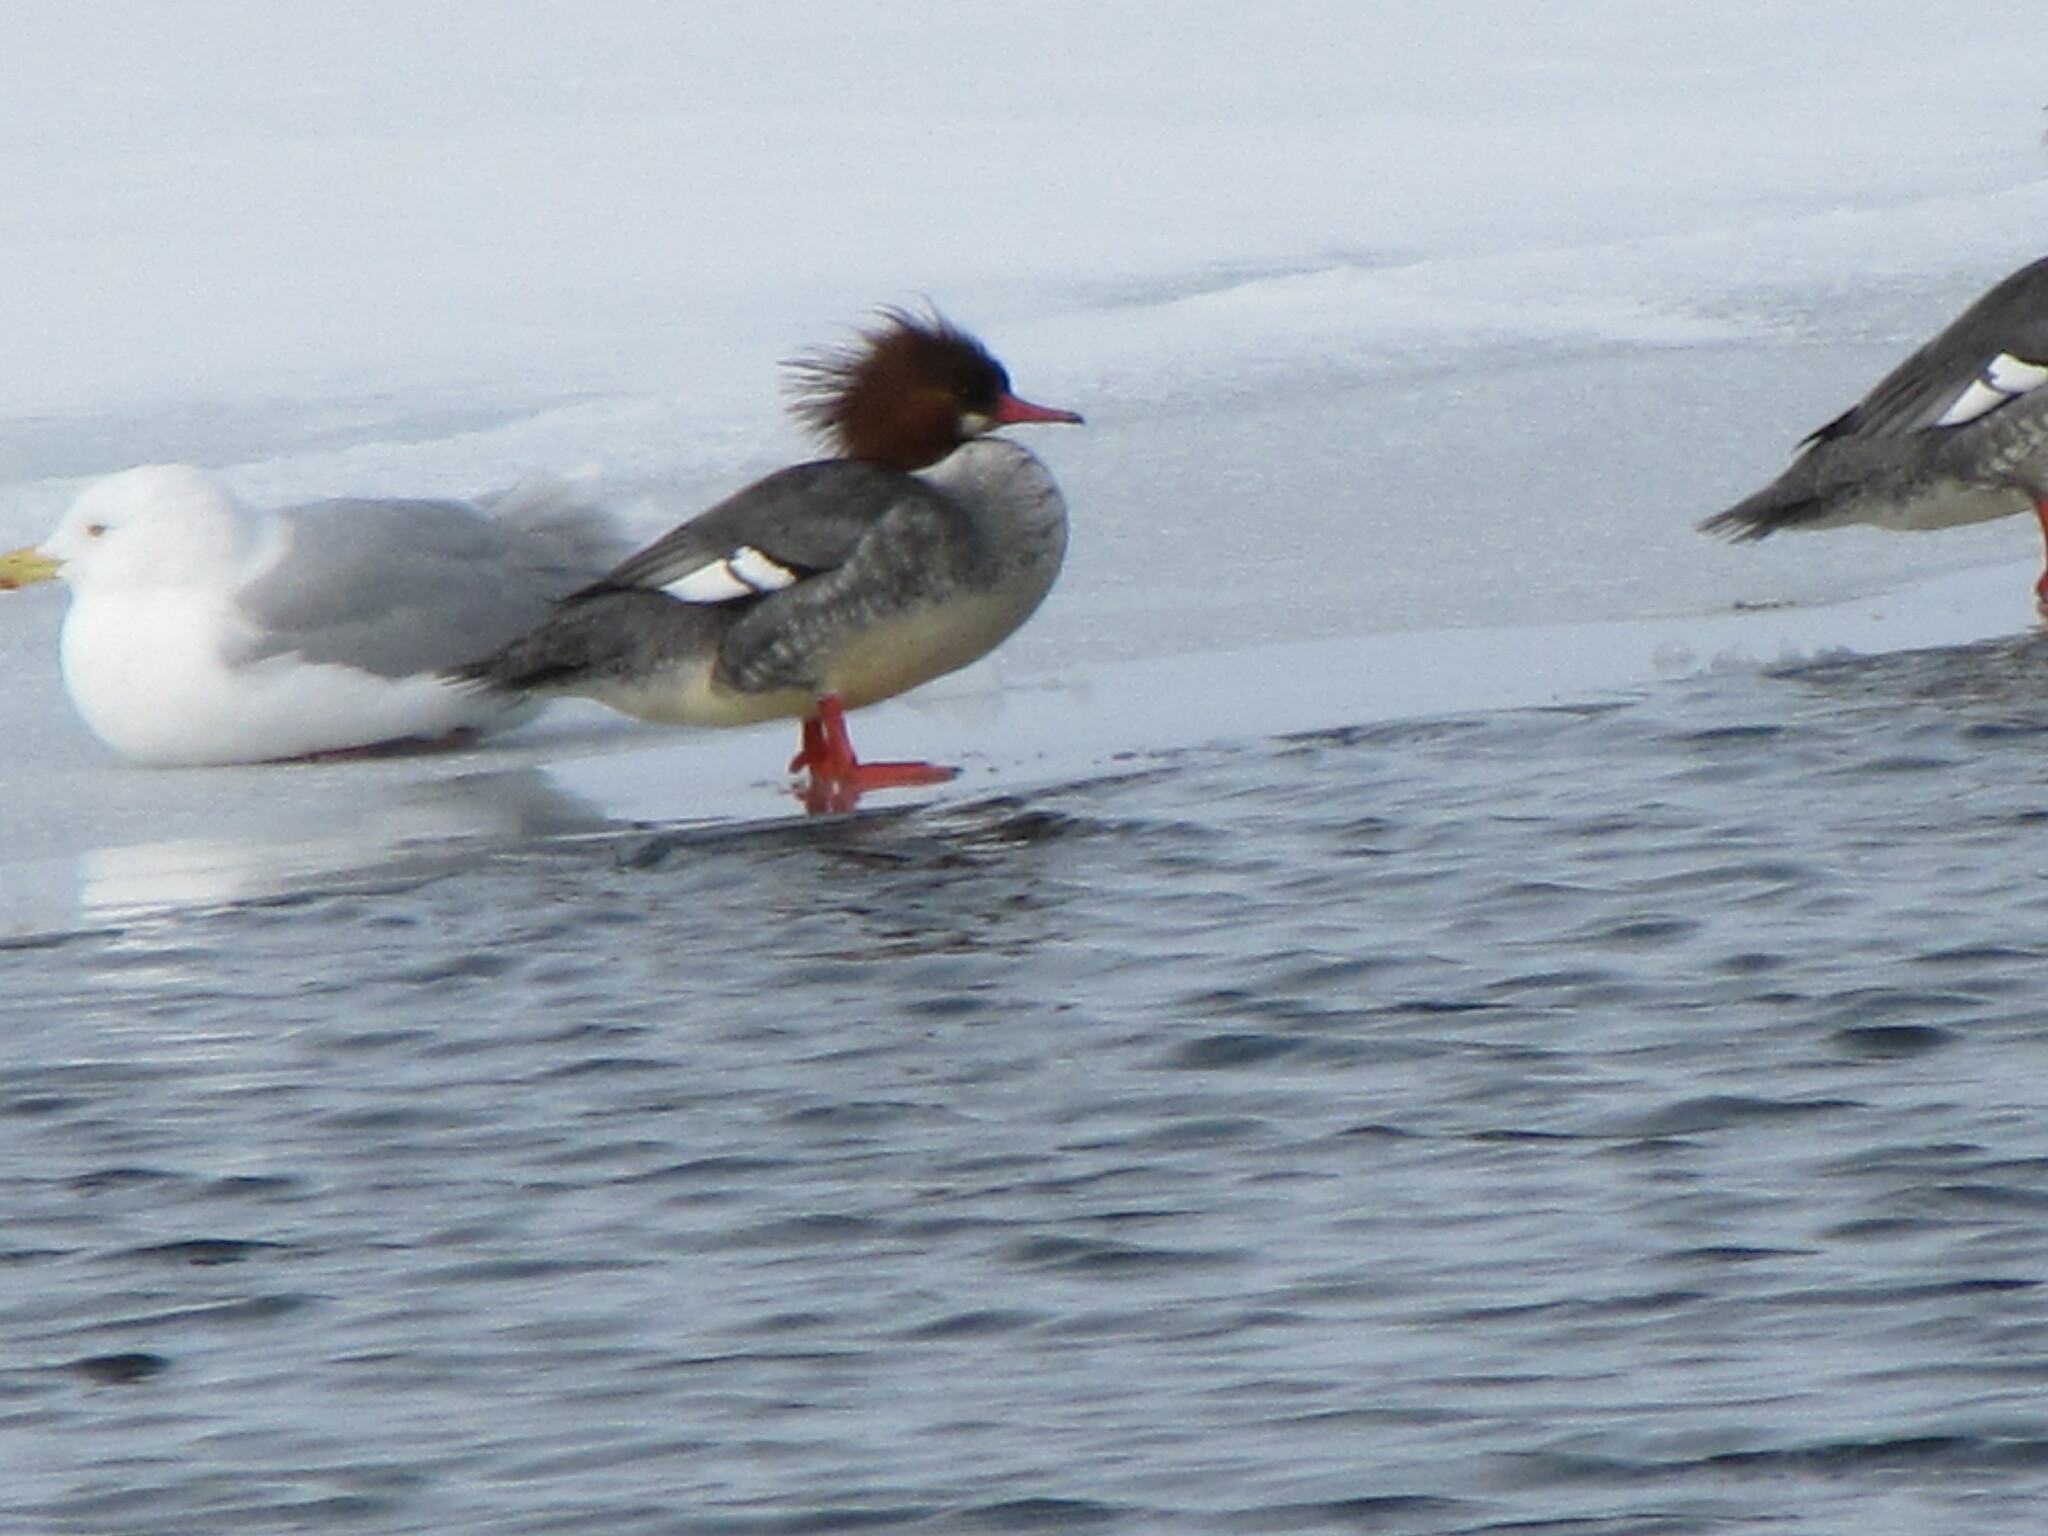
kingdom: Animalia
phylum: Chordata
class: Aves
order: Anseriformes
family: Anatidae
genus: Mergus
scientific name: Mergus merganser
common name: Common merganser
